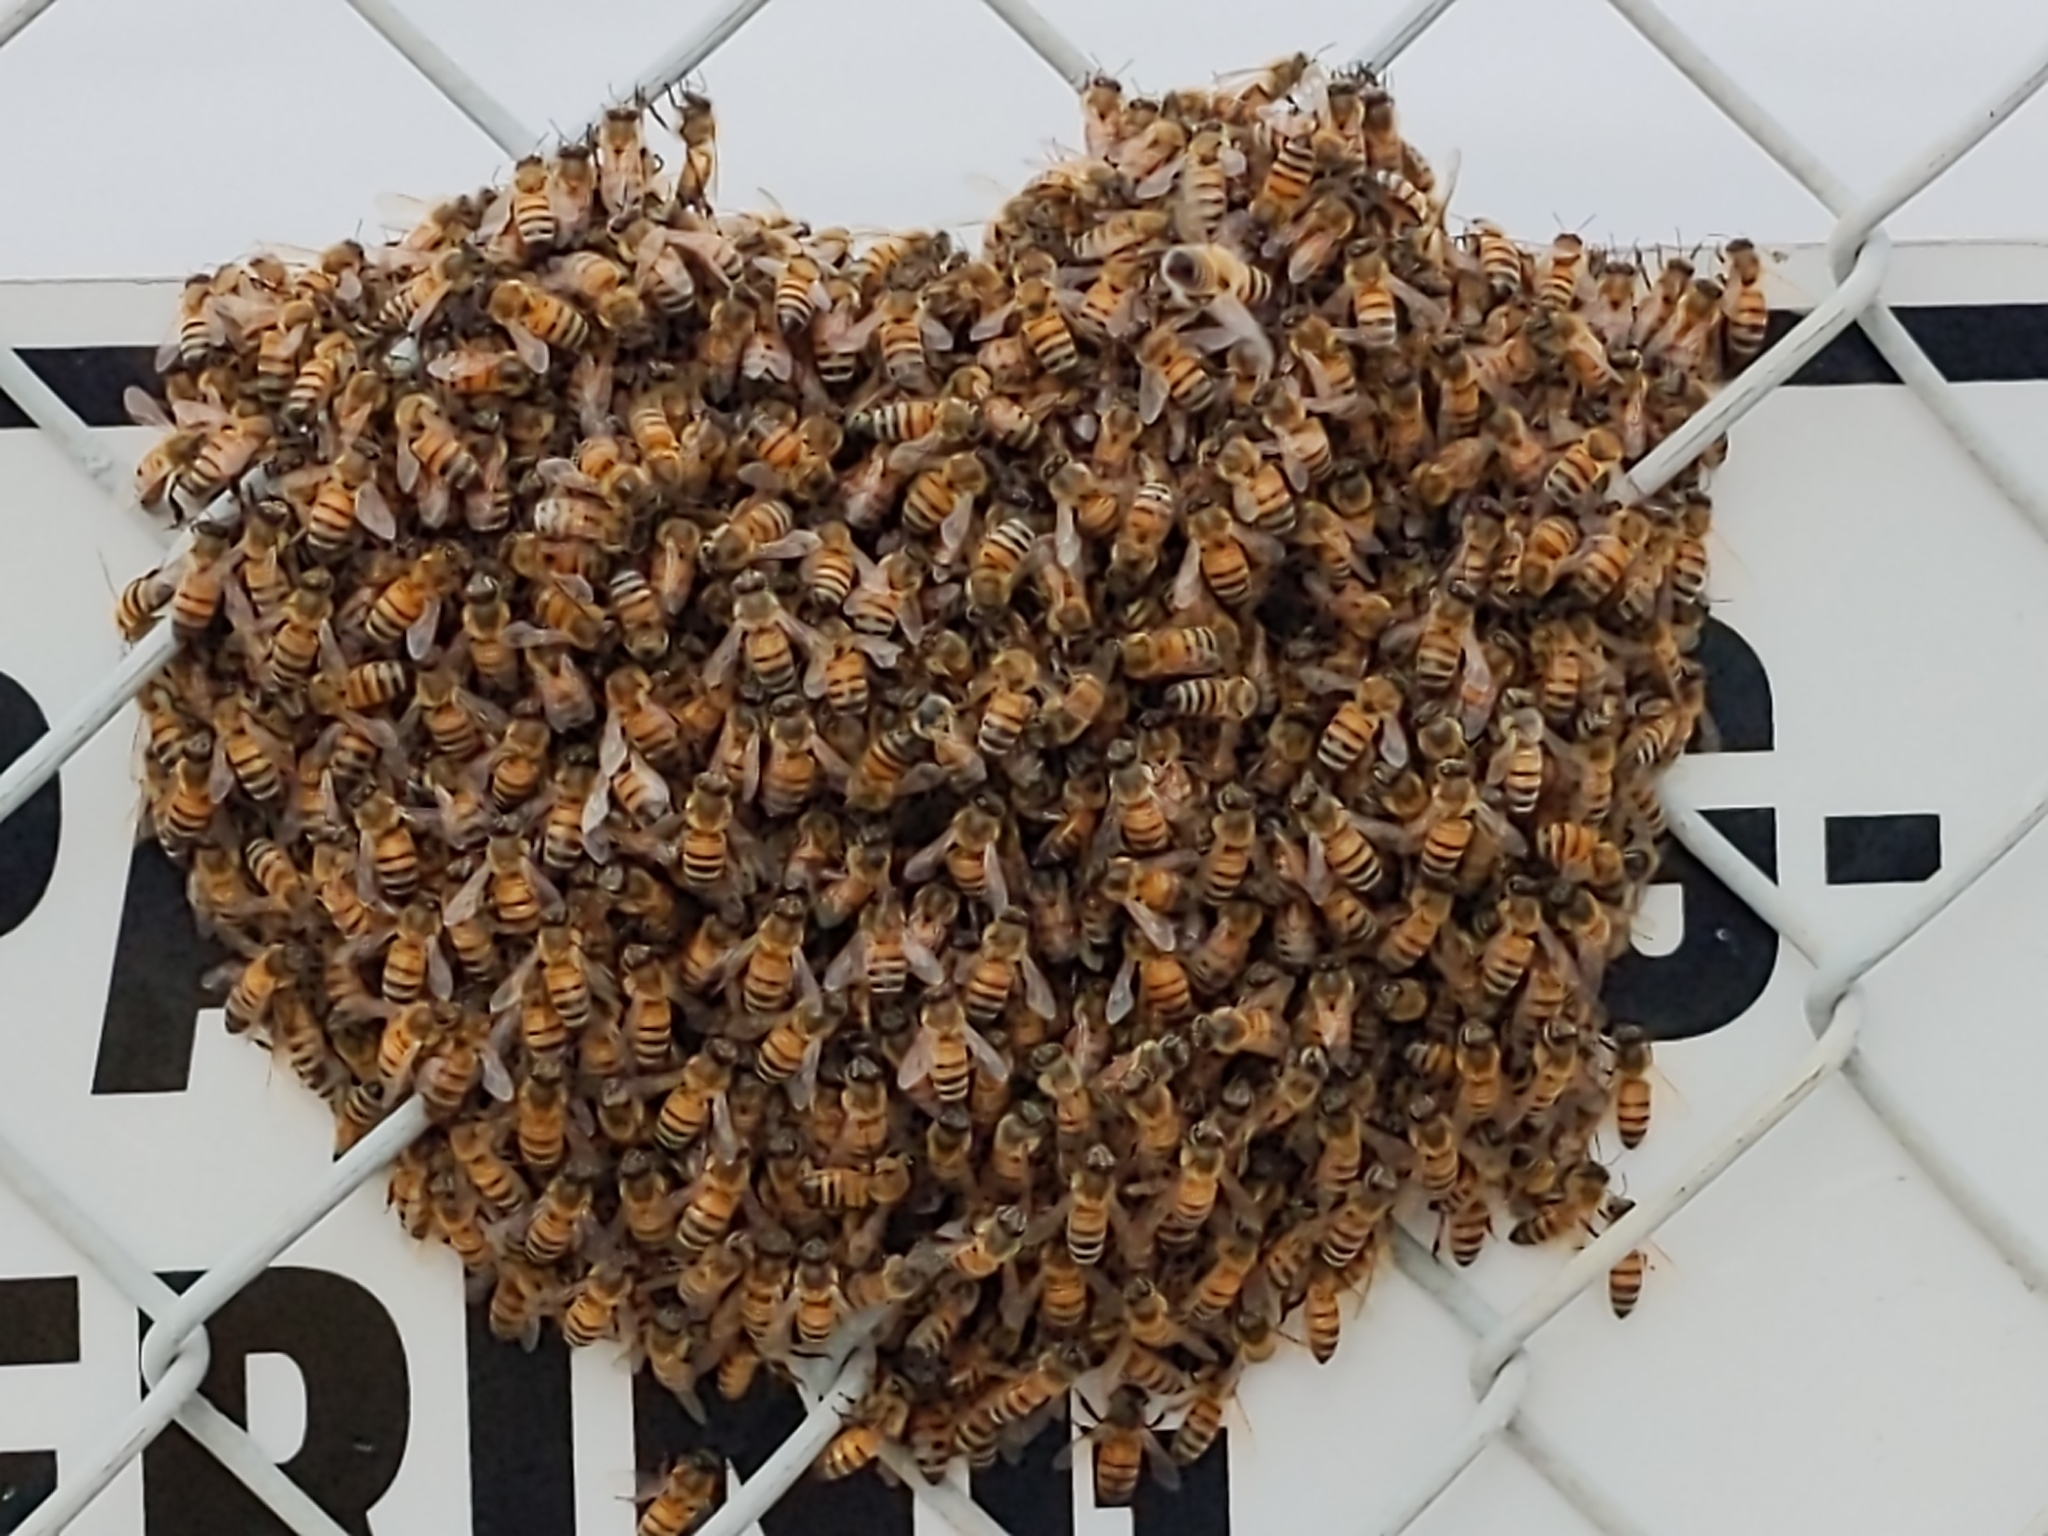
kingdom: Animalia
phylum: Arthropoda
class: Insecta
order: Hymenoptera
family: Apidae
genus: Apis
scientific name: Apis mellifera
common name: Honey bee
